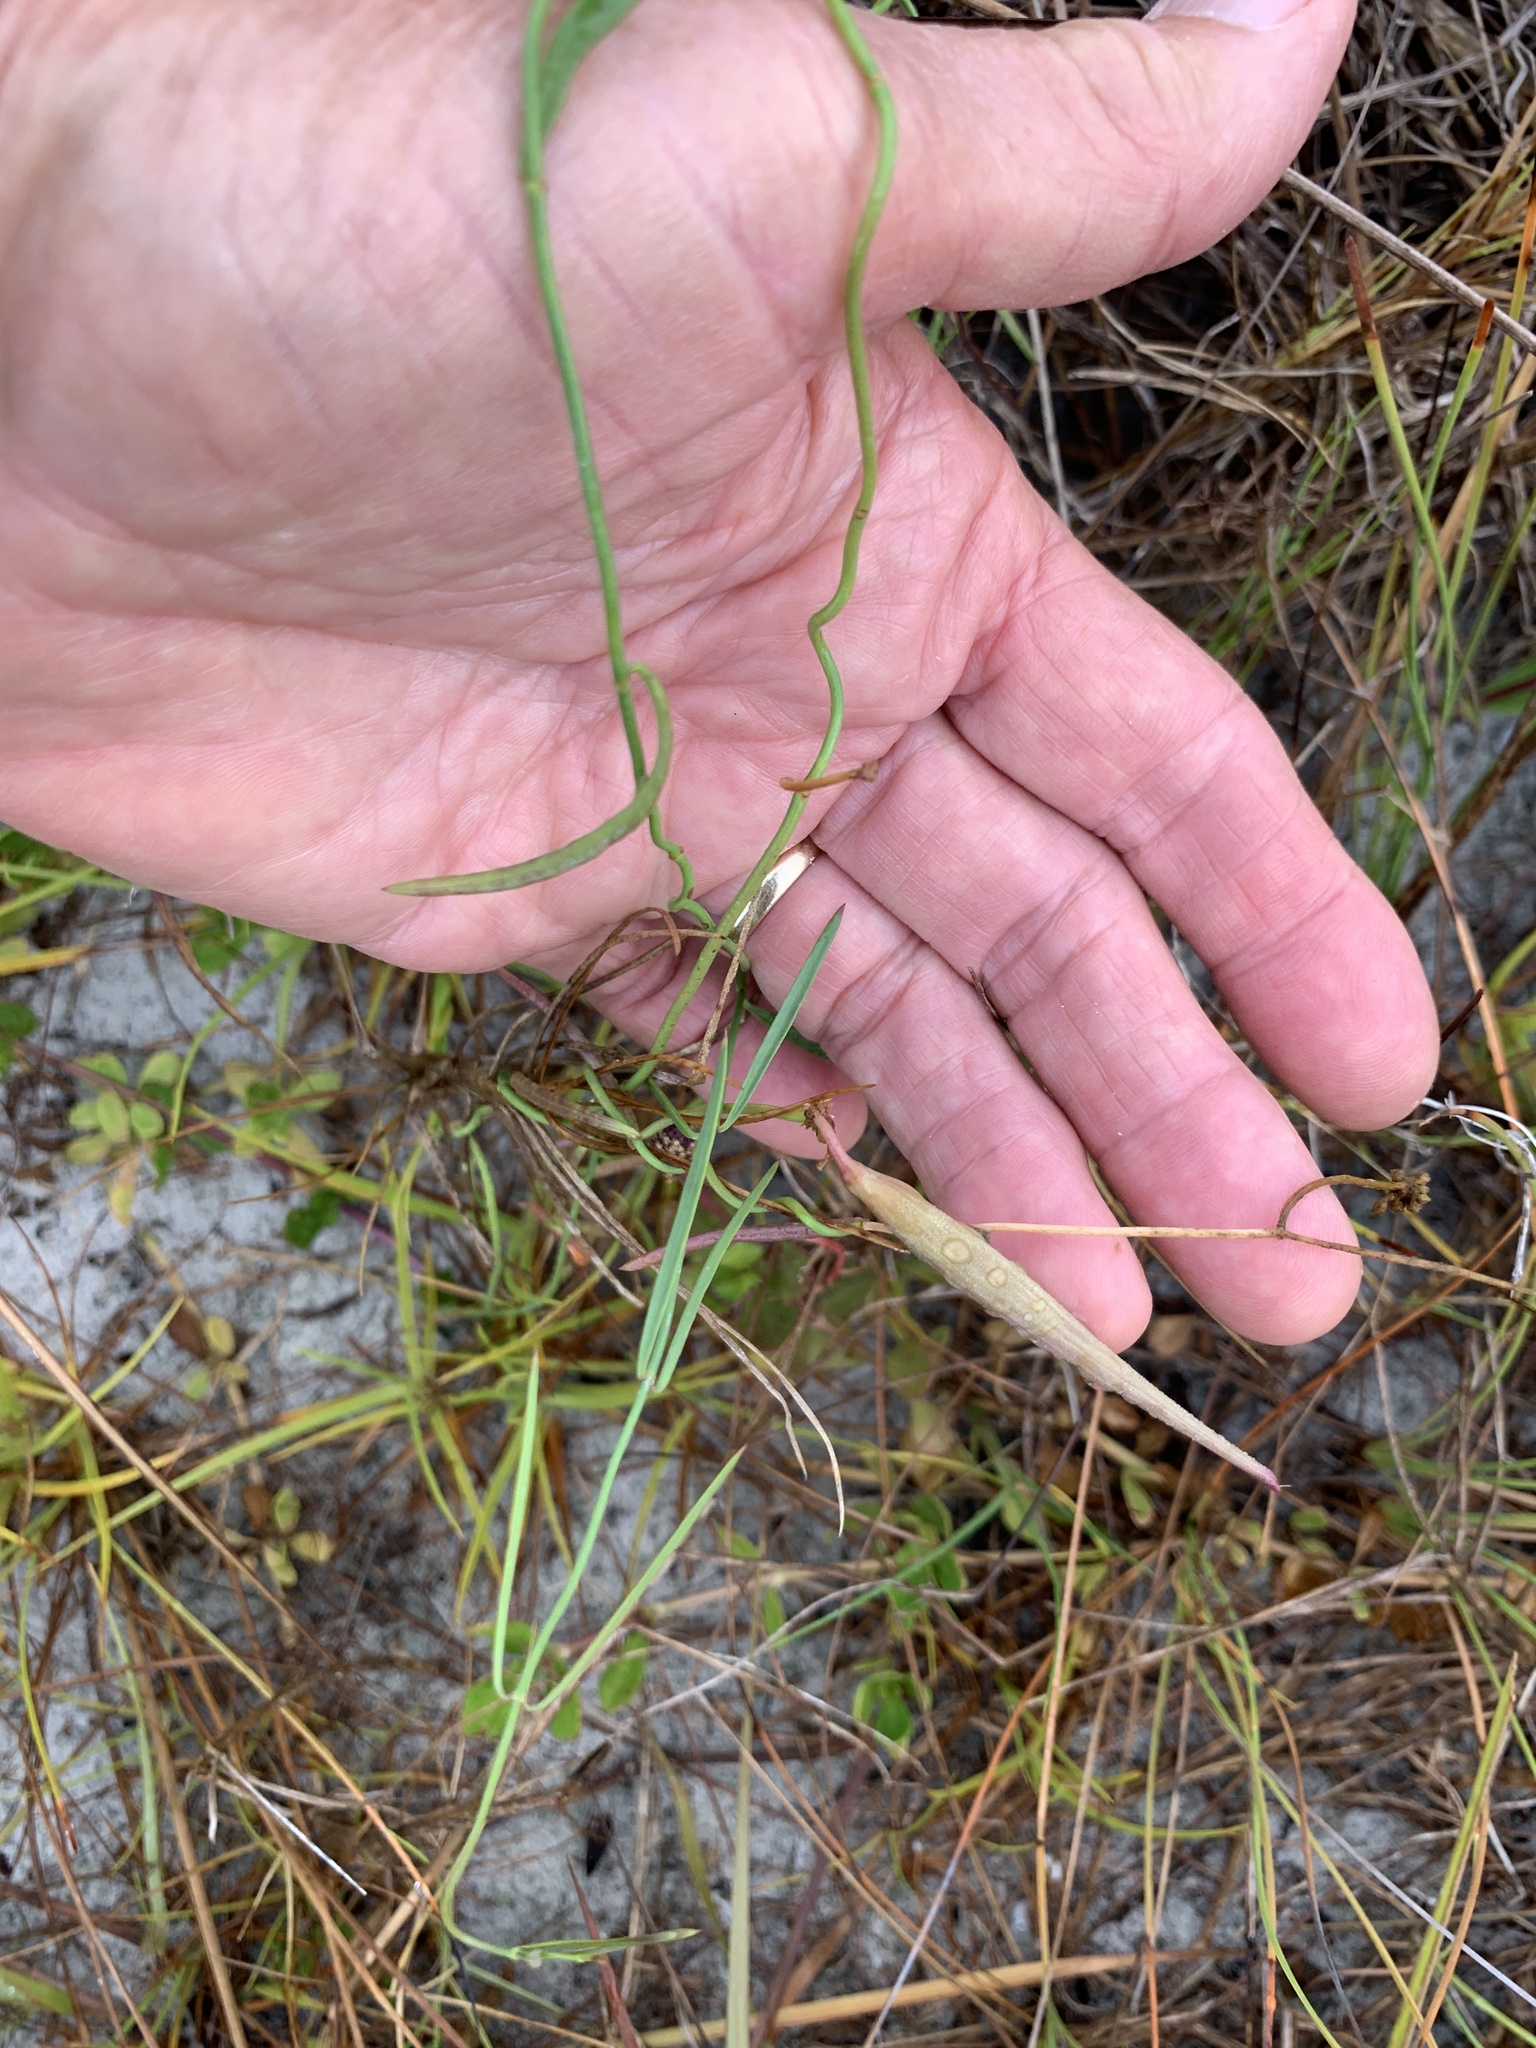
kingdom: Plantae
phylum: Tracheophyta
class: Magnoliopsida
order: Gentianales
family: Apocynaceae
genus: Pattalias
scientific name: Pattalias
